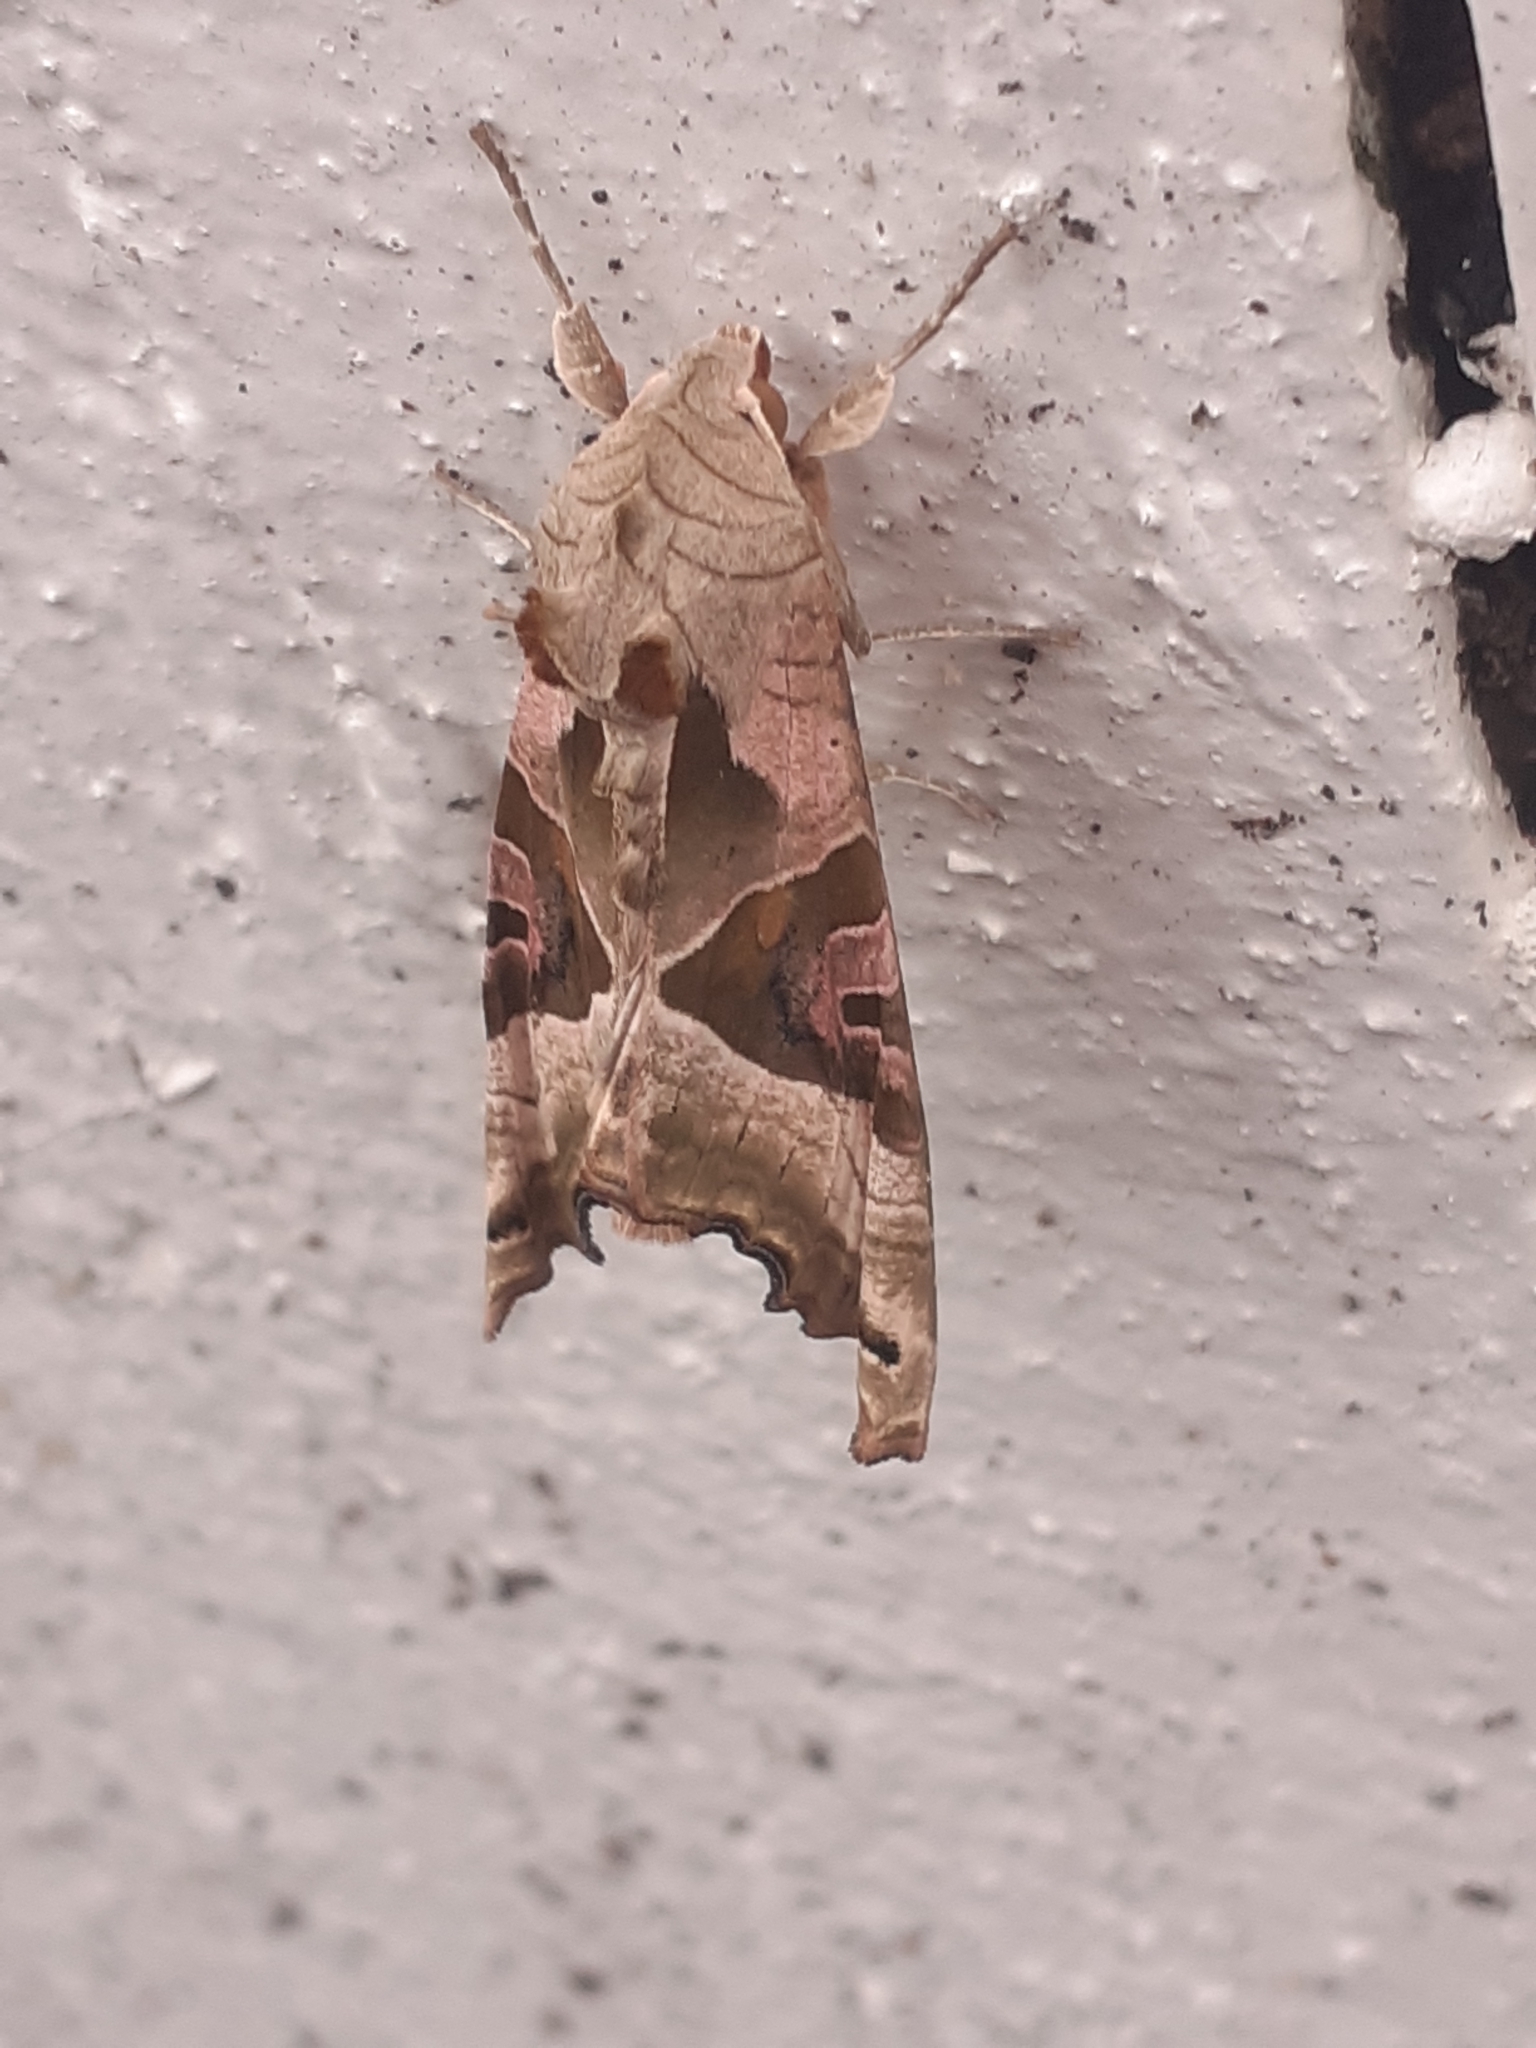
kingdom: Animalia
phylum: Arthropoda
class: Insecta
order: Lepidoptera
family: Noctuidae
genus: Phlogophora
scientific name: Phlogophora meticulosa
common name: Angle shades
